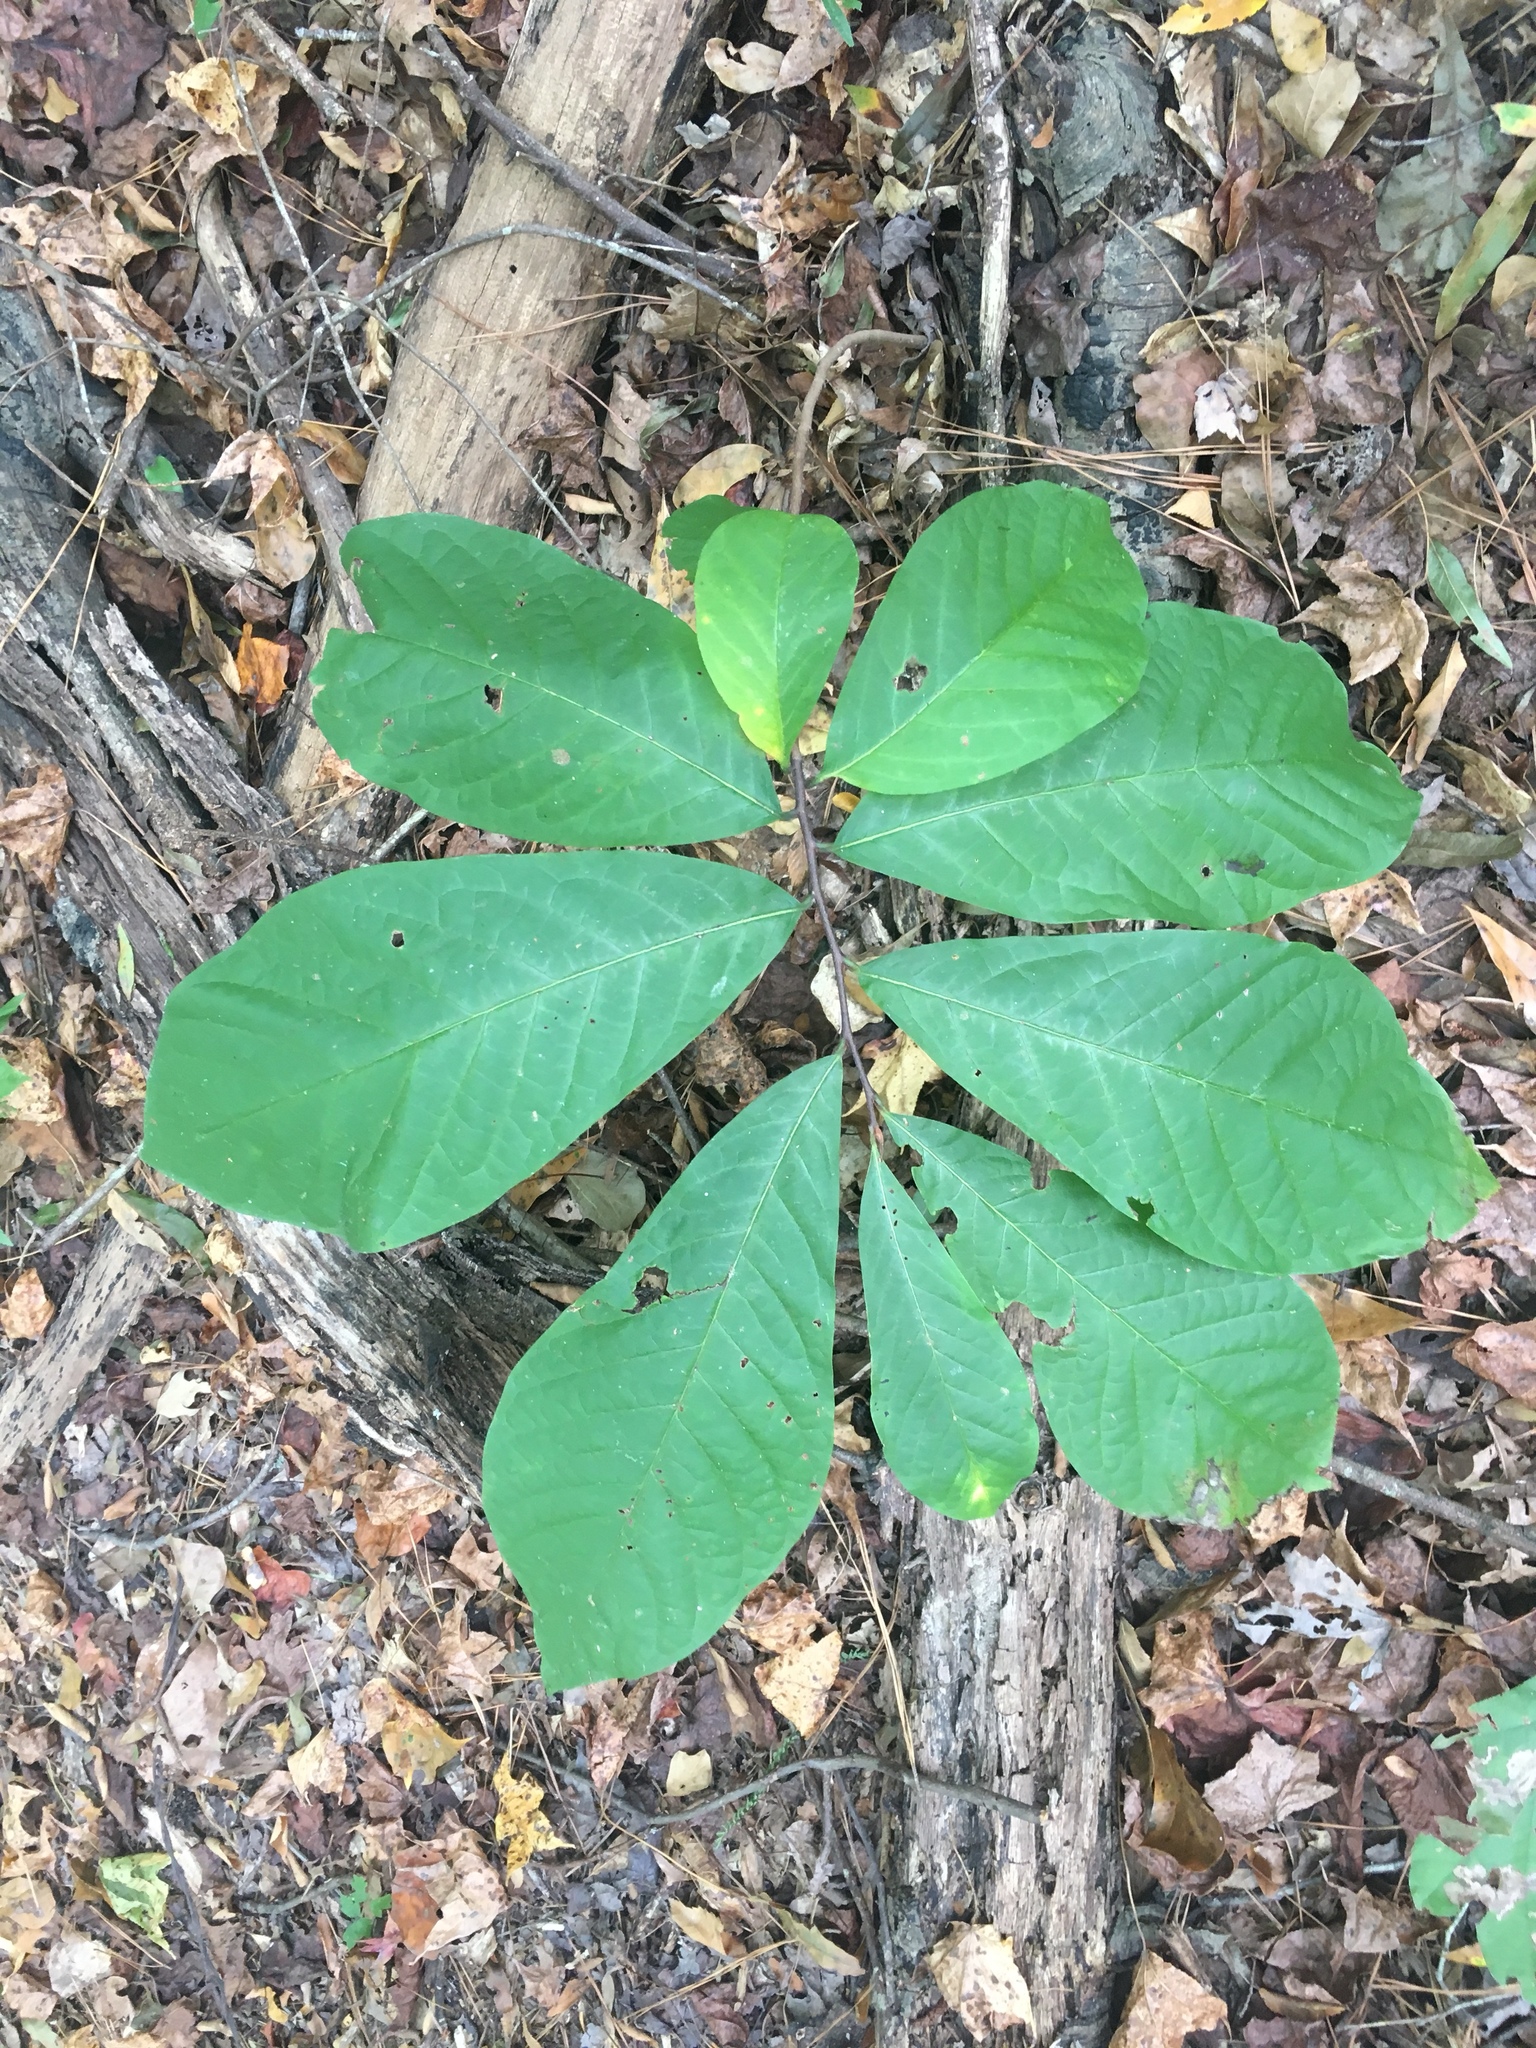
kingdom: Plantae
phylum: Tracheophyta
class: Magnoliopsida
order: Magnoliales
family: Annonaceae
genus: Asimina
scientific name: Asimina triloba
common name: Dog-banana
